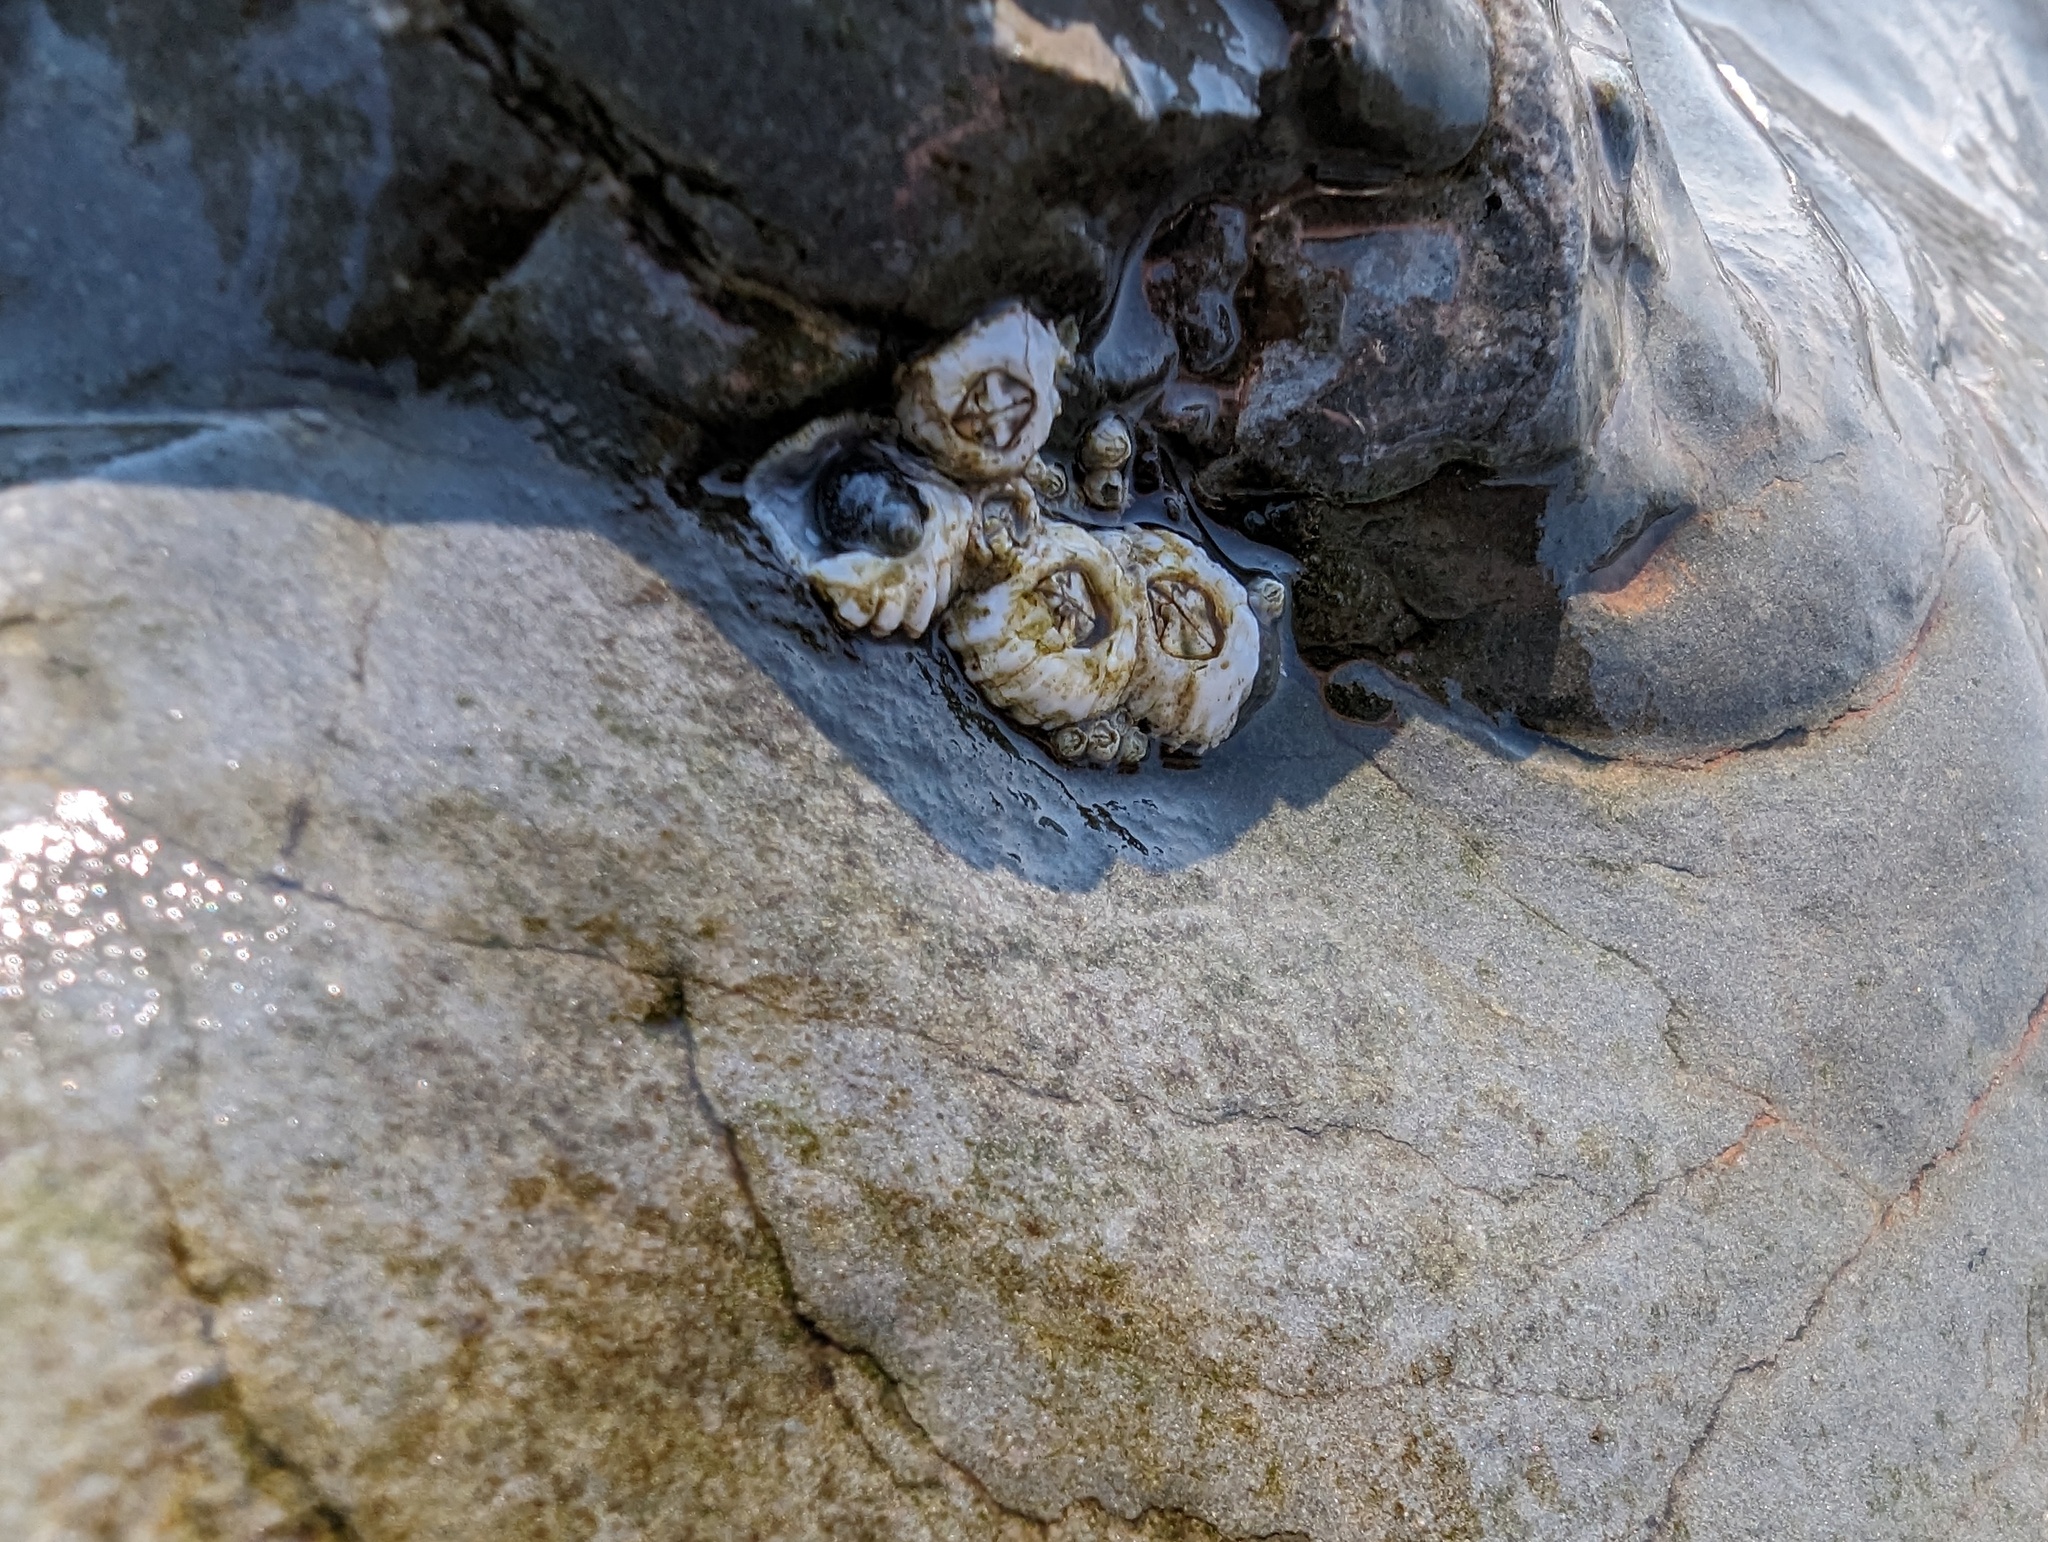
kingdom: Animalia
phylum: Arthropoda
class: Maxillopoda
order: Sessilia
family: Balanidae
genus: Balanus
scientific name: Balanus glandula
